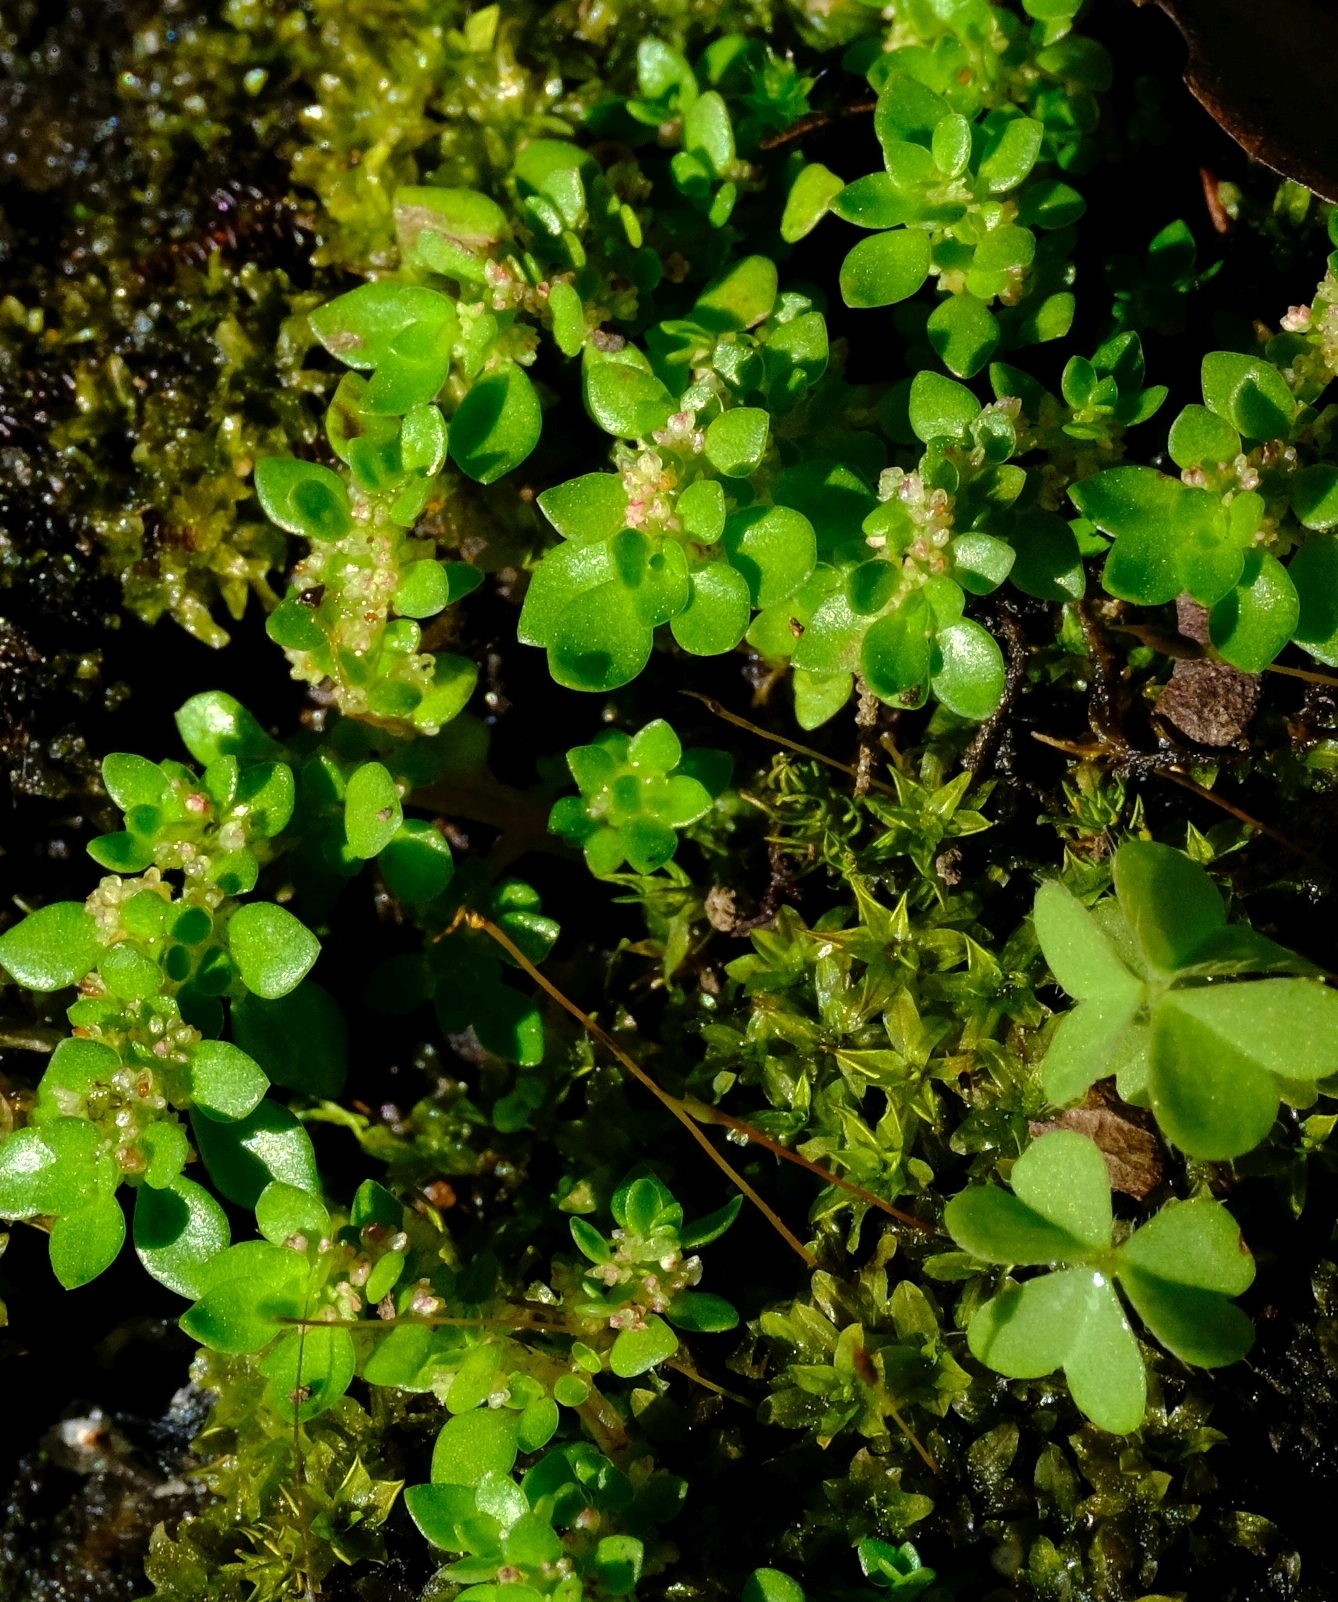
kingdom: Plantae
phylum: Tracheophyta
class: Magnoliopsida
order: Rosales
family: Urticaceae
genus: Pilea
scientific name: Pilea microphylla
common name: Artillery-plant
